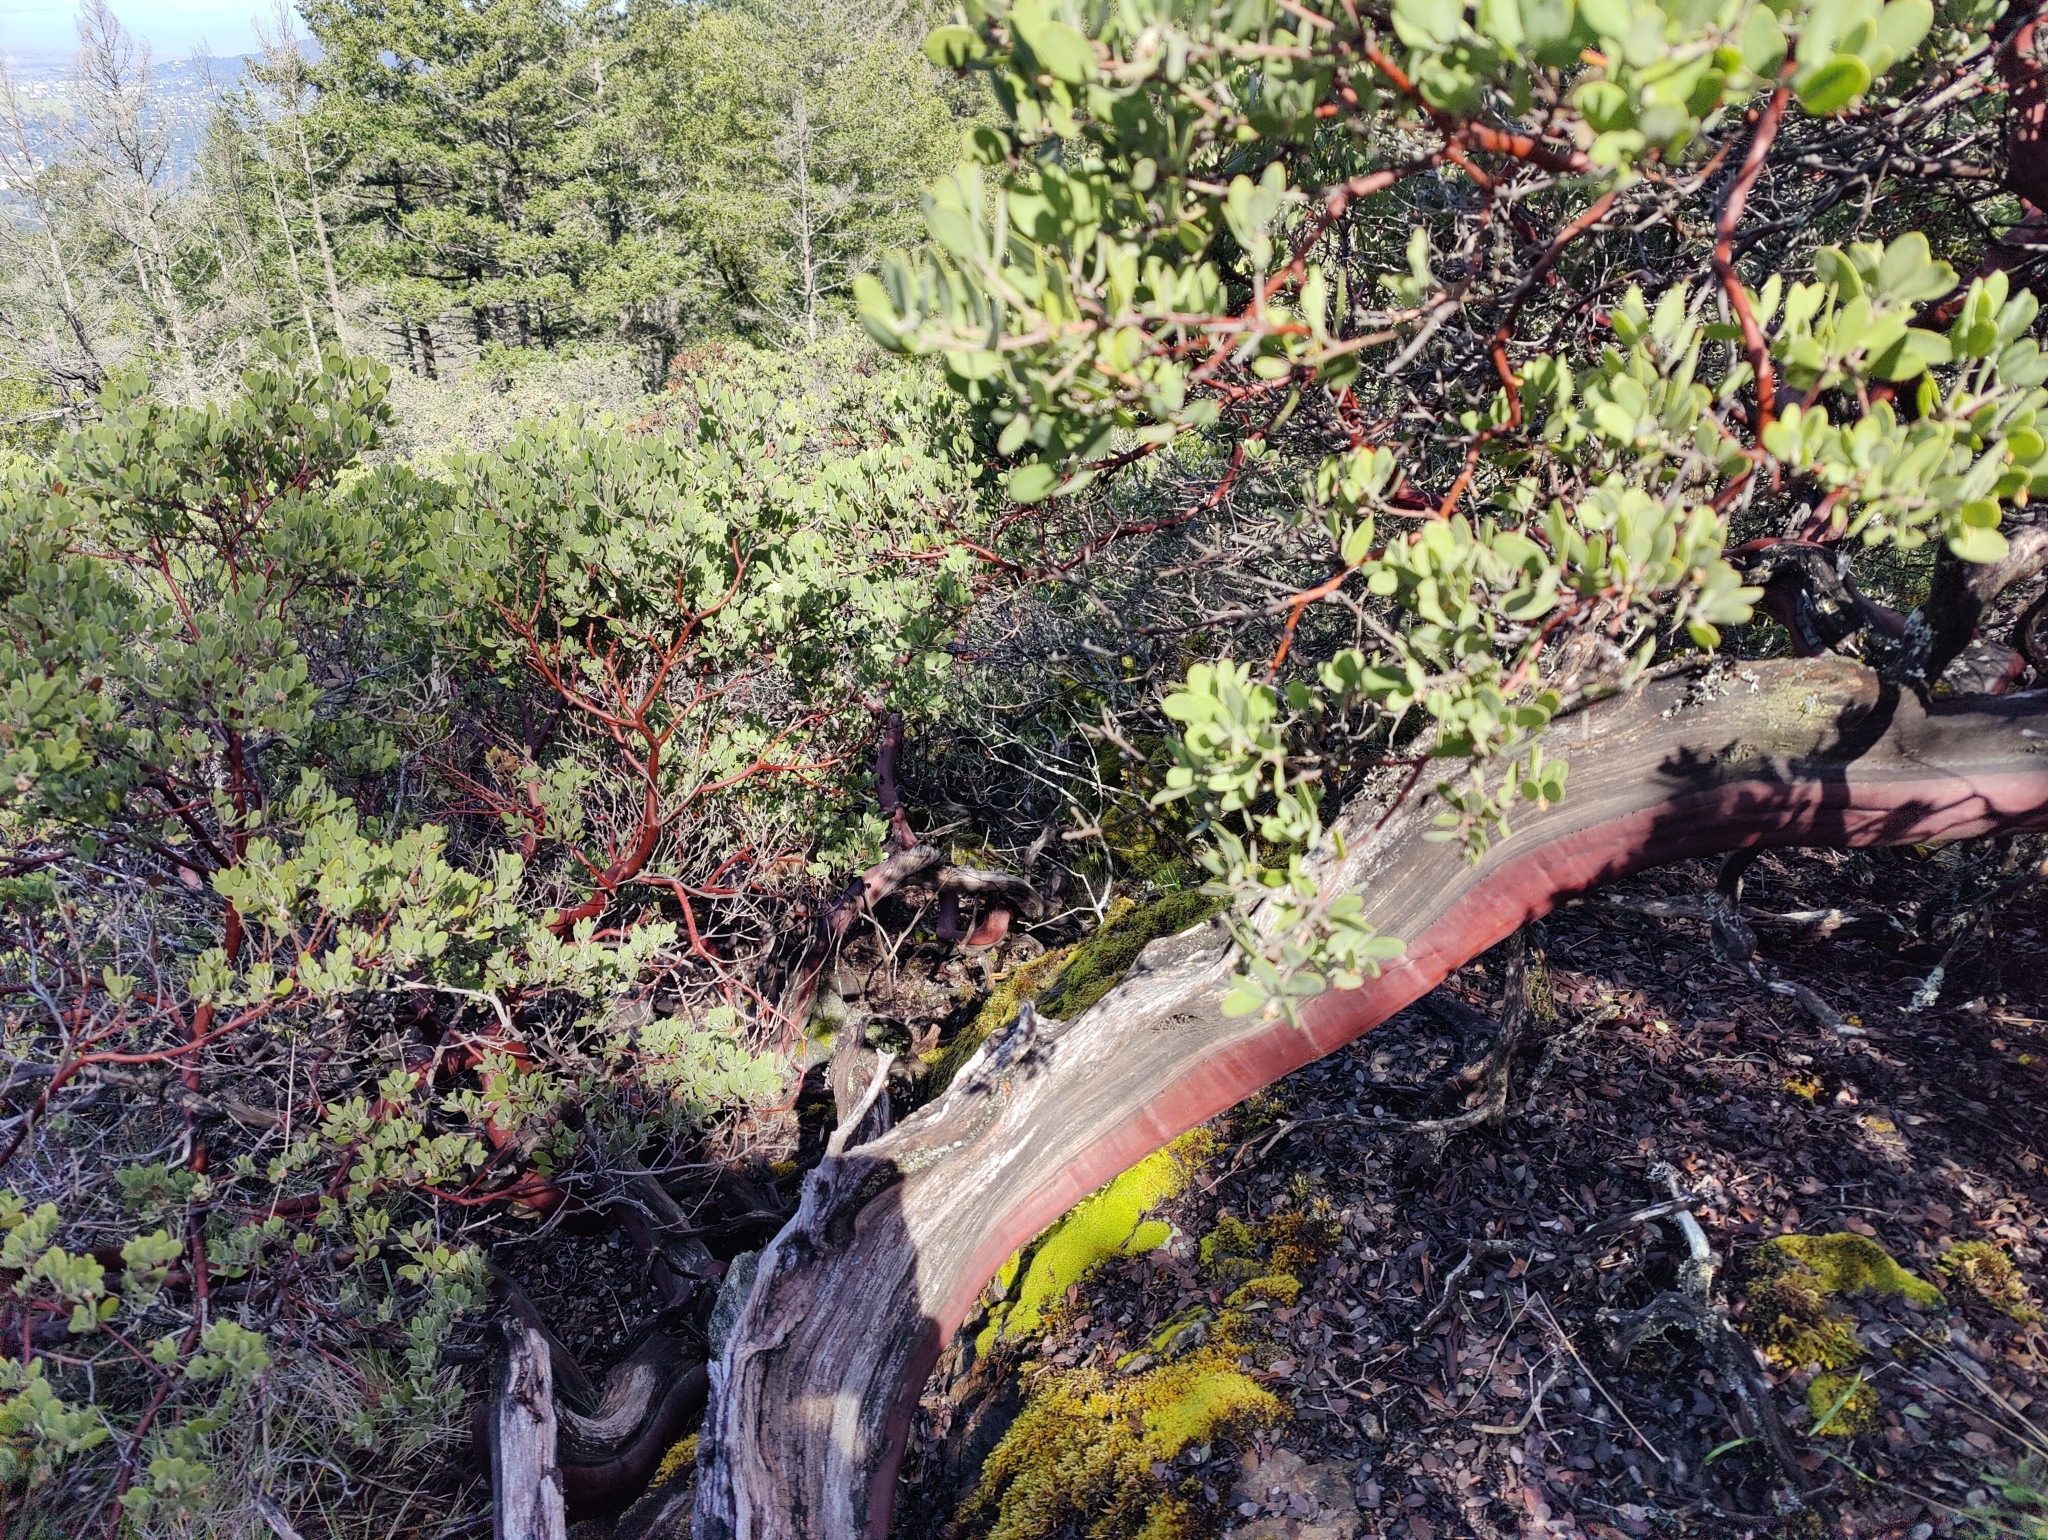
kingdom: Plantae
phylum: Tracheophyta
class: Magnoliopsida
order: Ericales
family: Ericaceae
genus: Arctostaphylos
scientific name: Arctostaphylos montana
